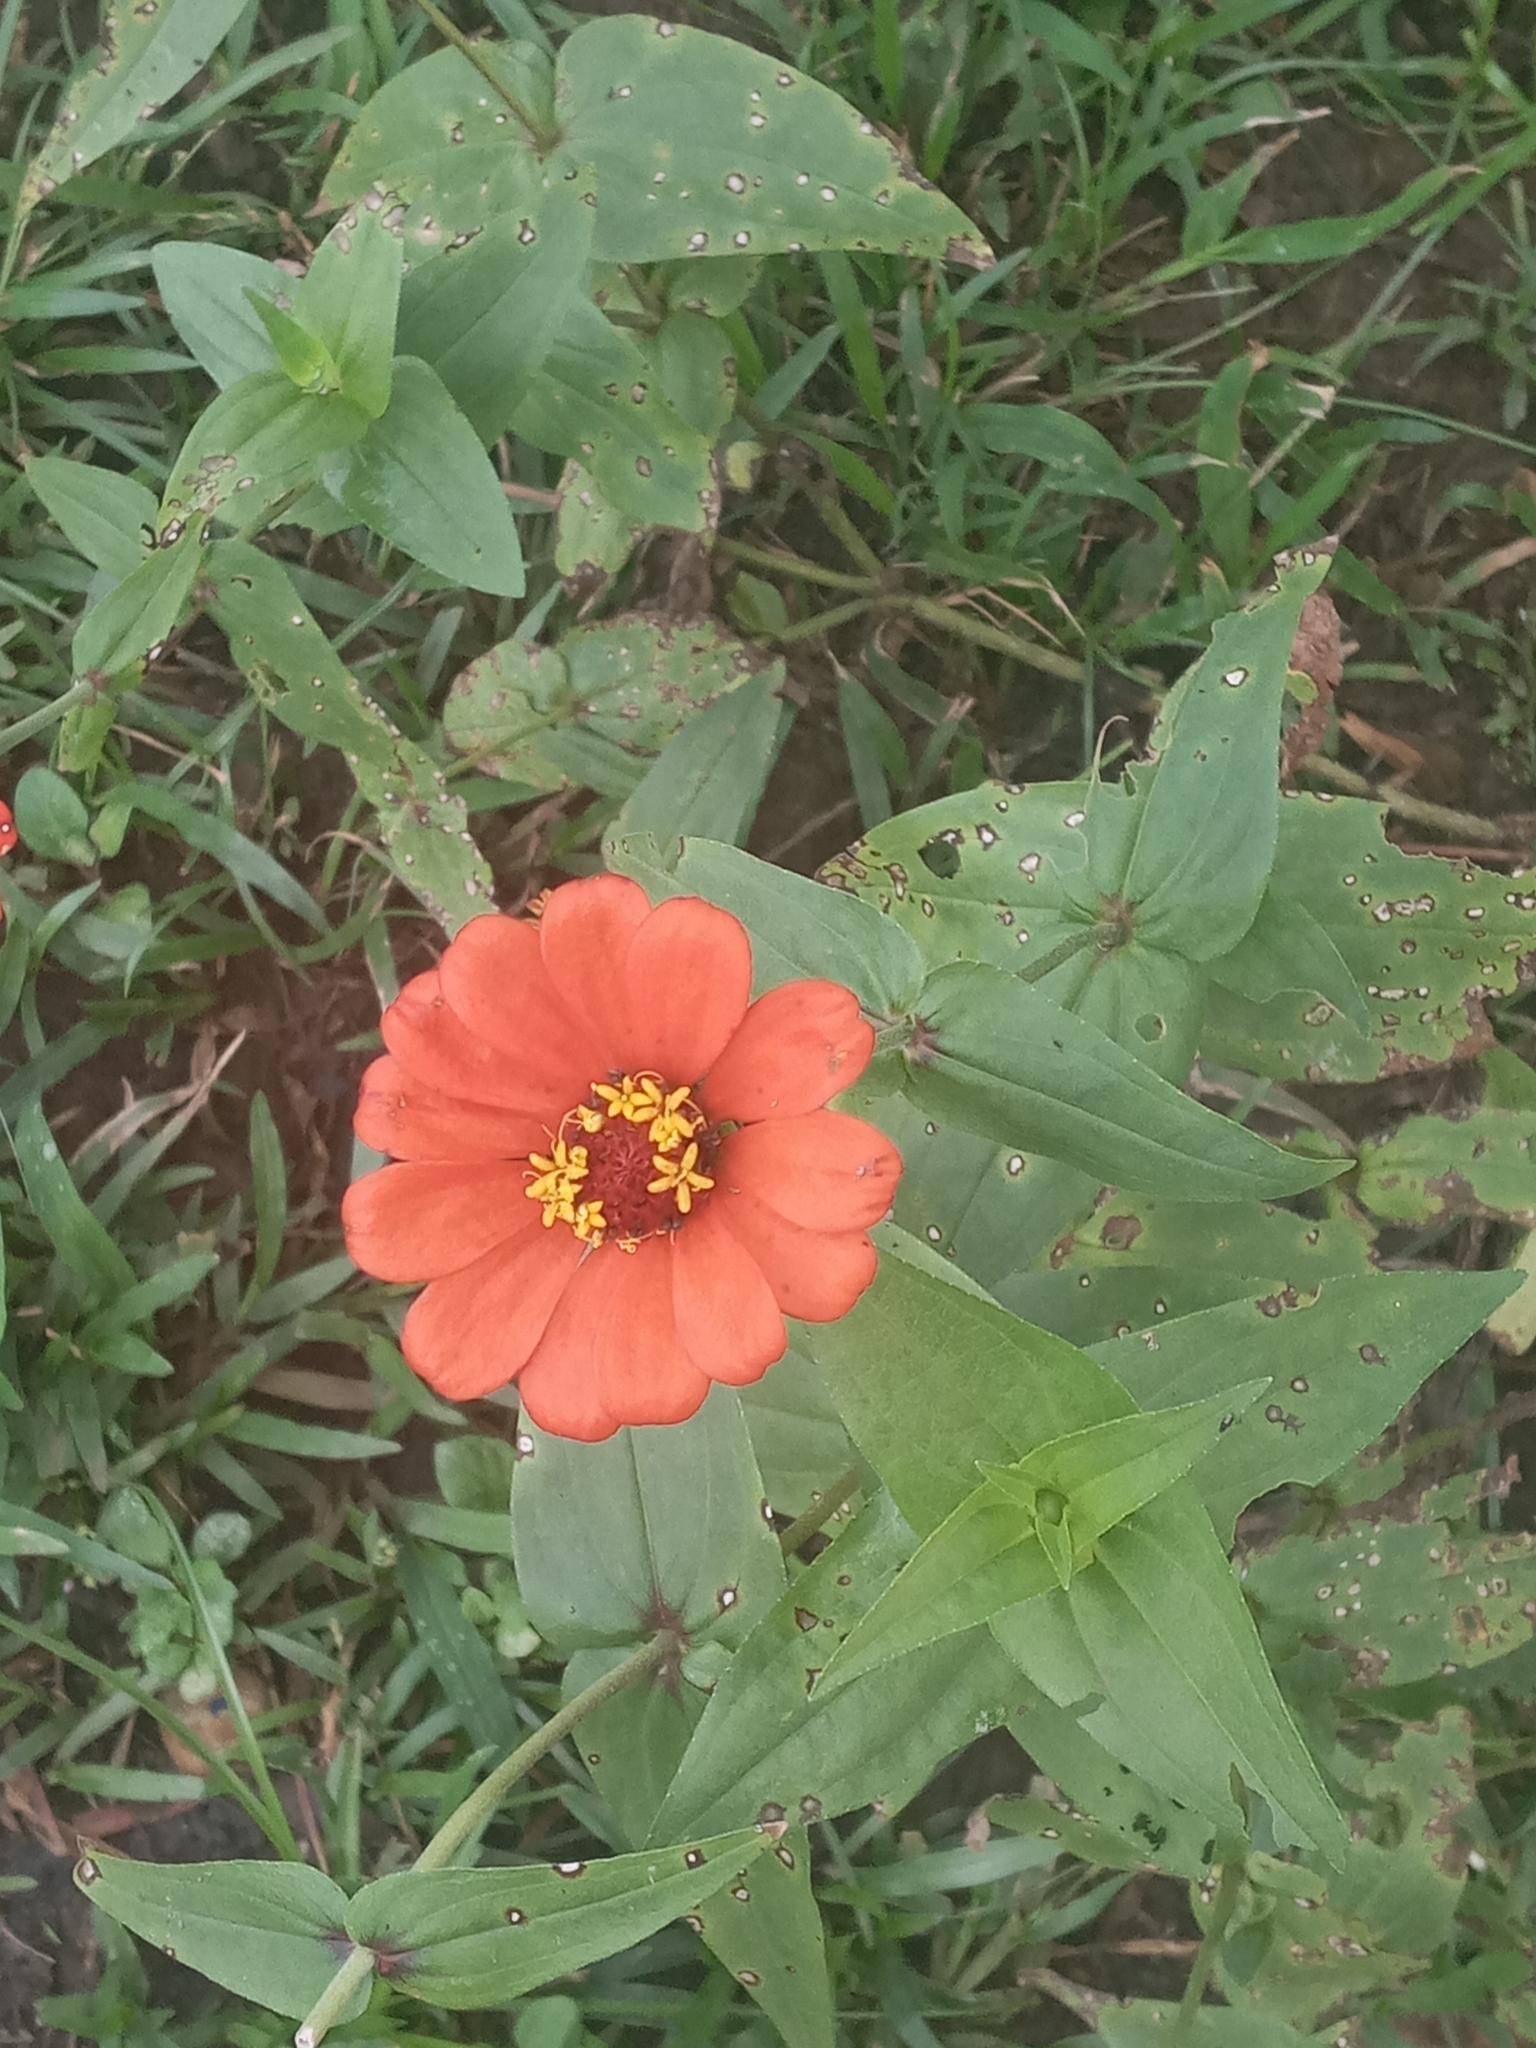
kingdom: Plantae
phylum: Tracheophyta
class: Magnoliopsida
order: Asterales
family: Asteraceae
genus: Zinnia
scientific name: Zinnia elegans
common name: Youth-and-age
